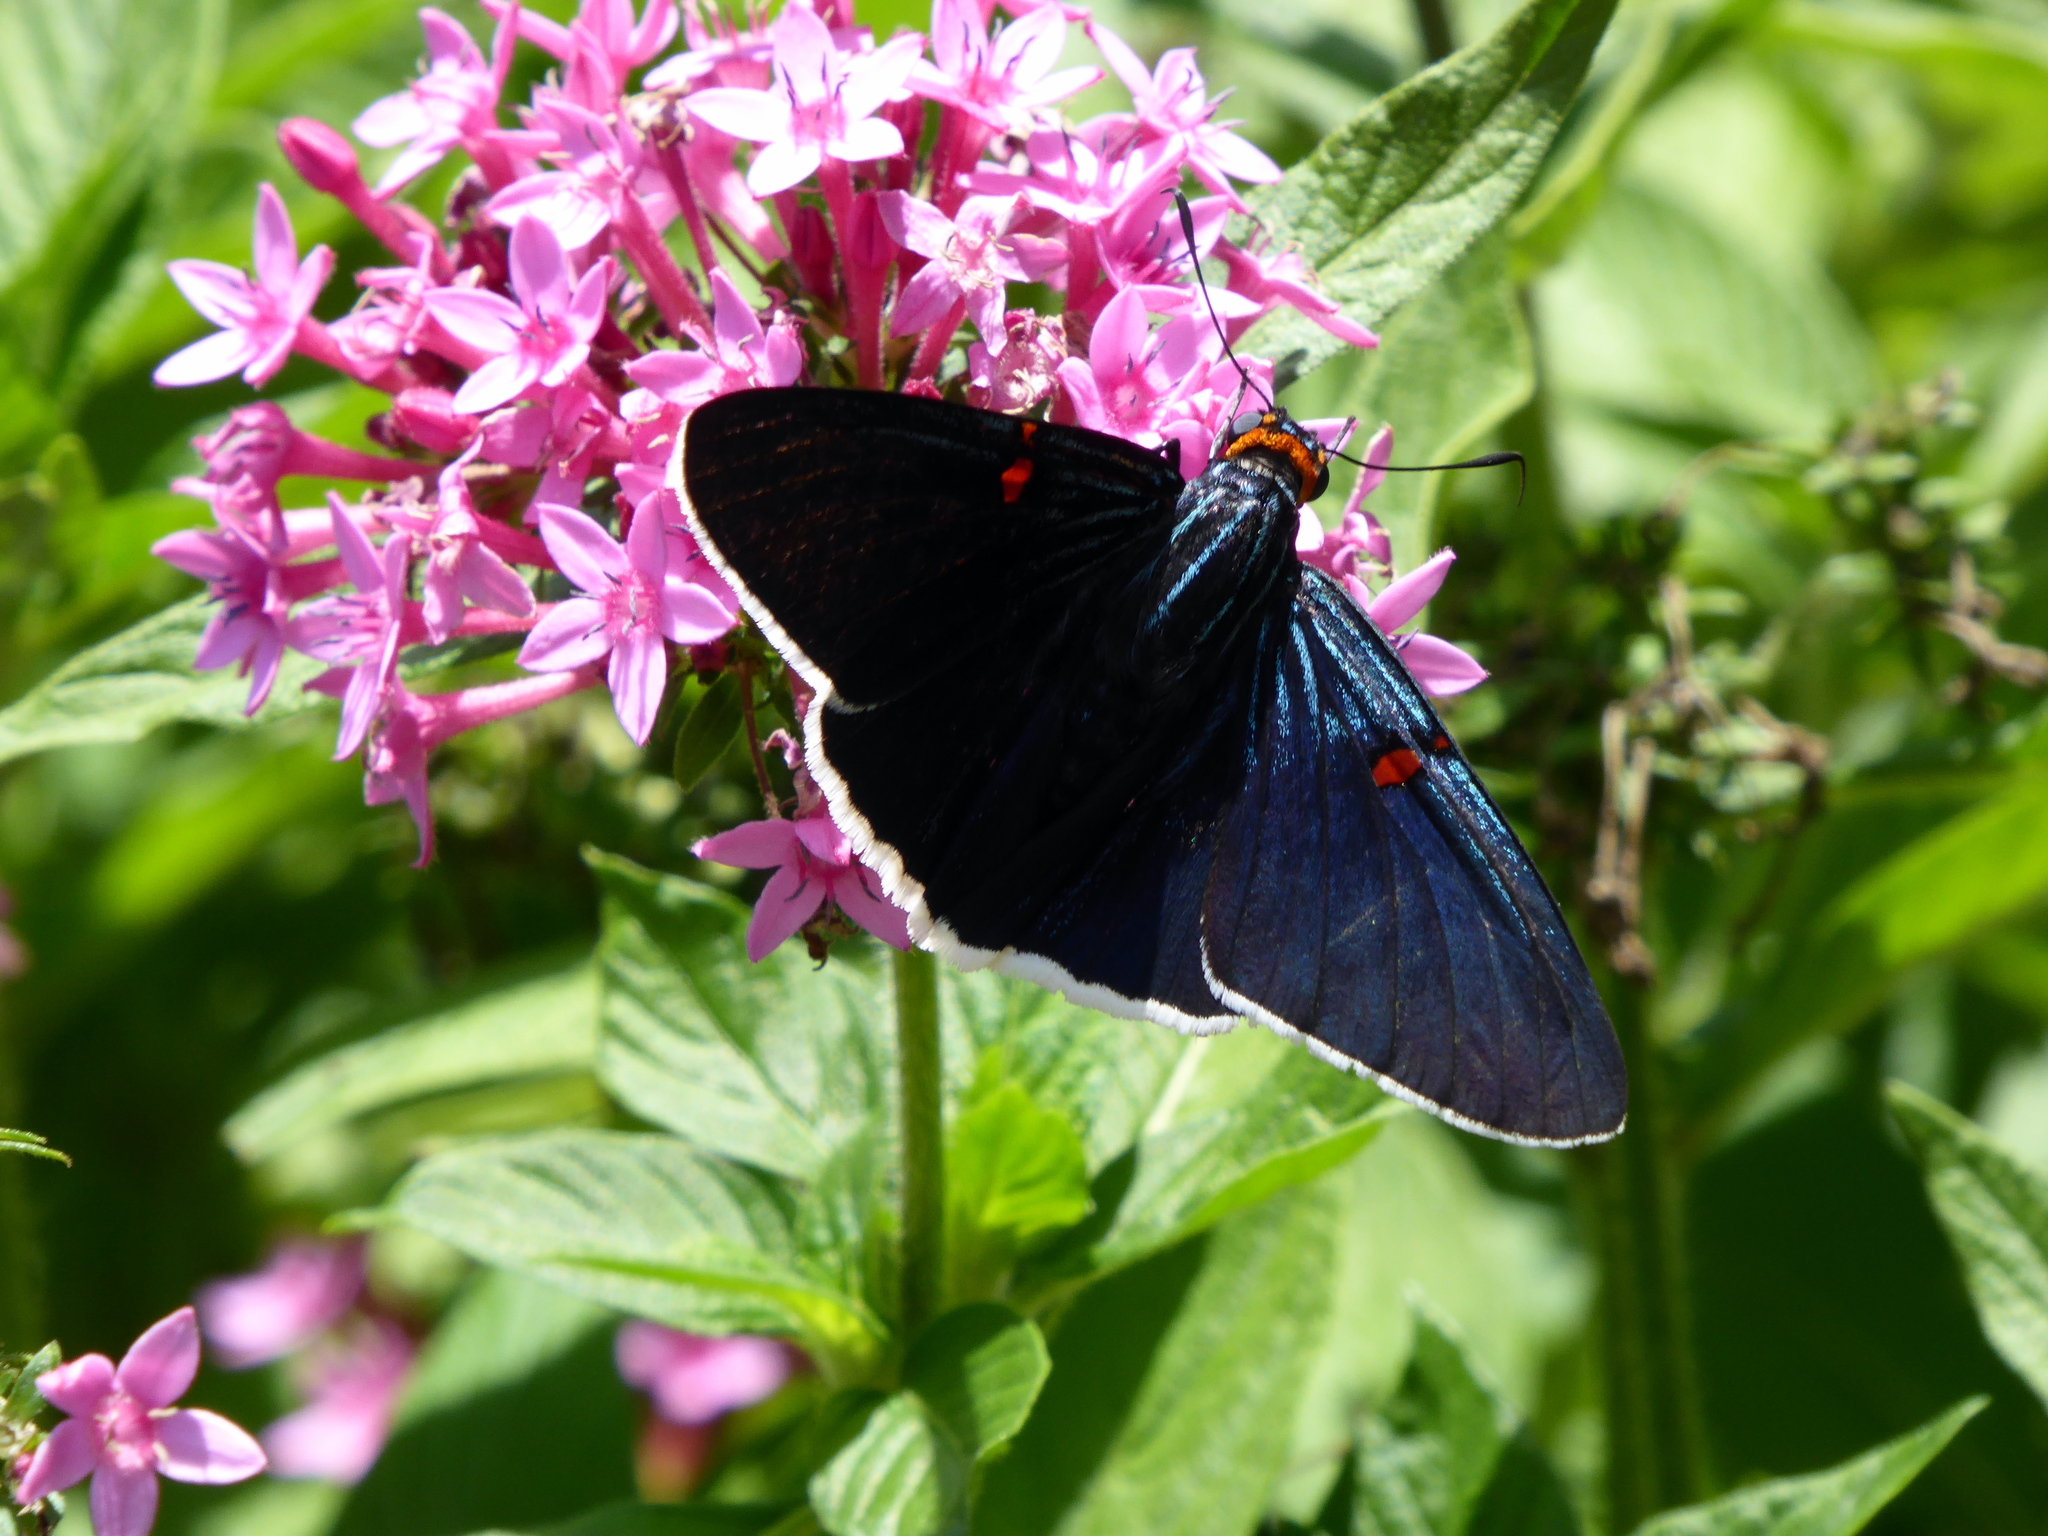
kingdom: Animalia
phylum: Arthropoda
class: Insecta
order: Lepidoptera
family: Hesperiidae
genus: Phocides
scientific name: Phocides lilea
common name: Guava skipper
